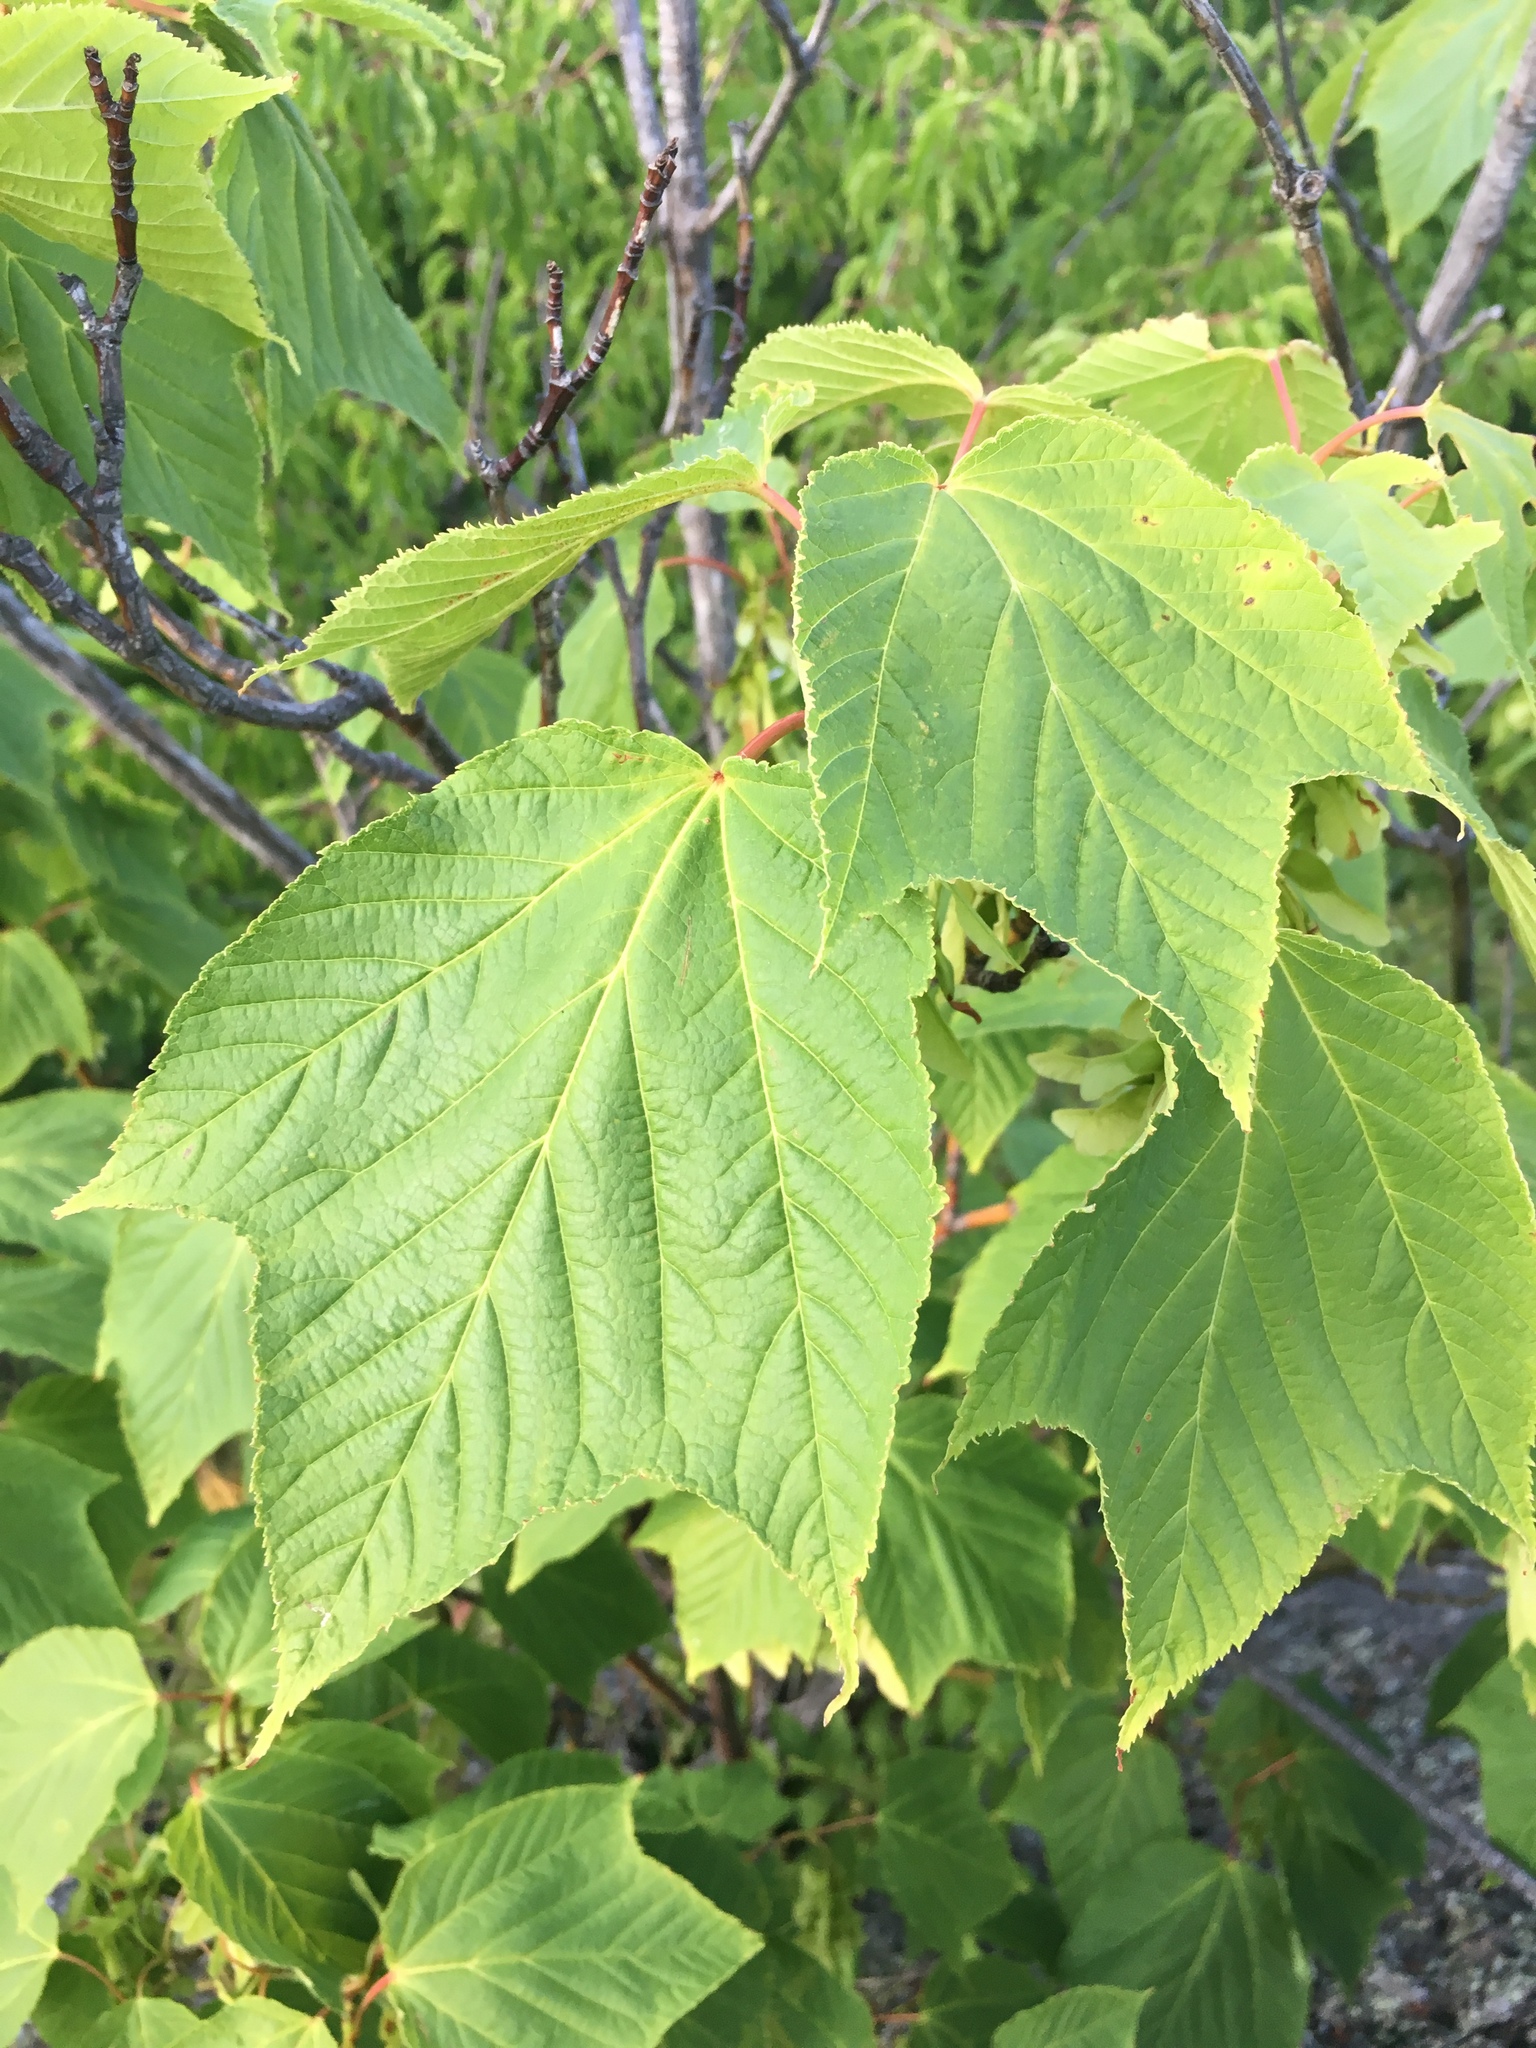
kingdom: Plantae
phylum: Tracheophyta
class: Magnoliopsida
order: Sapindales
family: Sapindaceae
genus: Acer
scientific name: Acer pensylvanicum
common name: Moosewood
